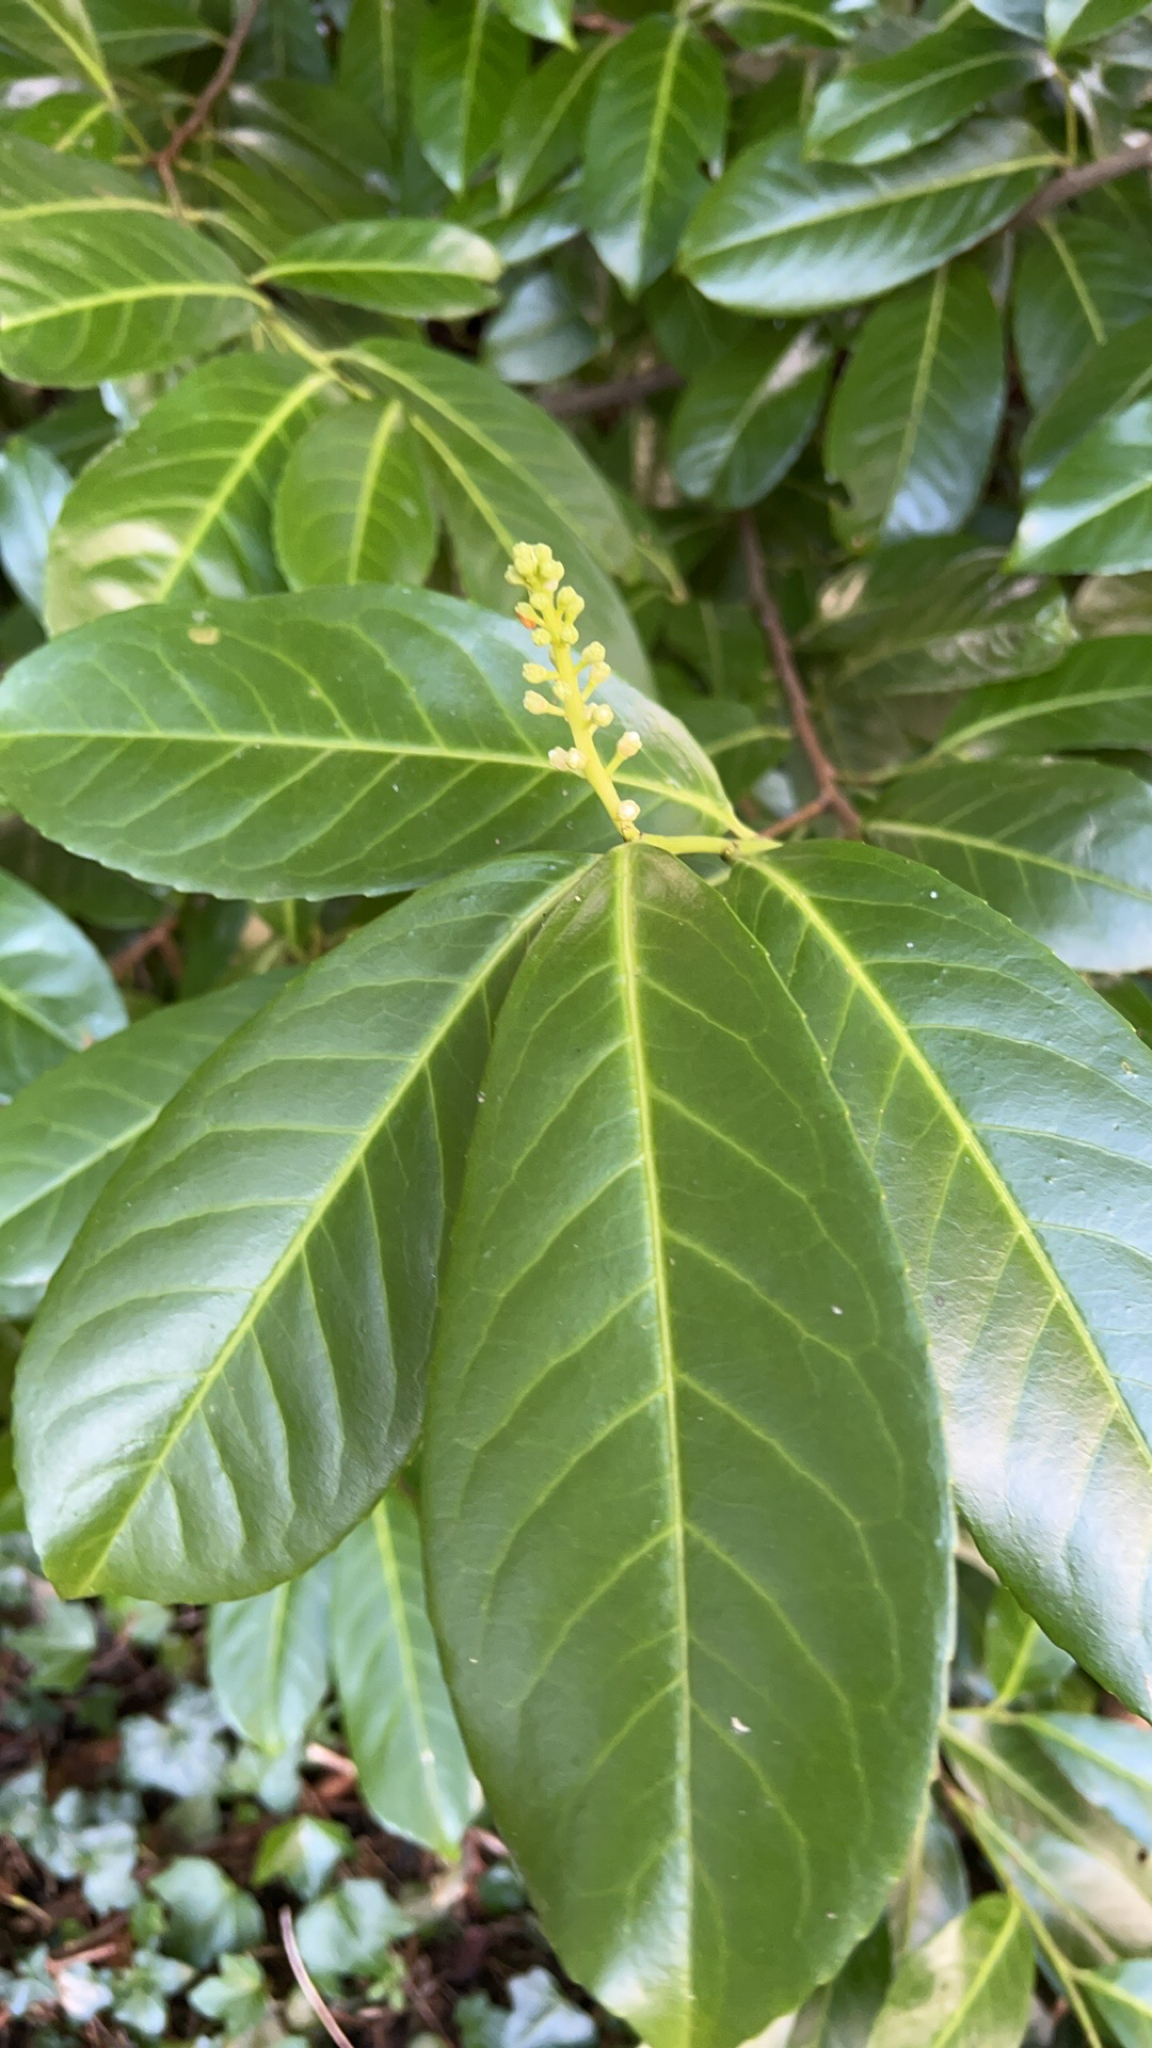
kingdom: Plantae
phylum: Tracheophyta
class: Magnoliopsida
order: Rosales
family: Rosaceae
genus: Prunus
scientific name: Prunus laurocerasus
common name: Cherry laurel
